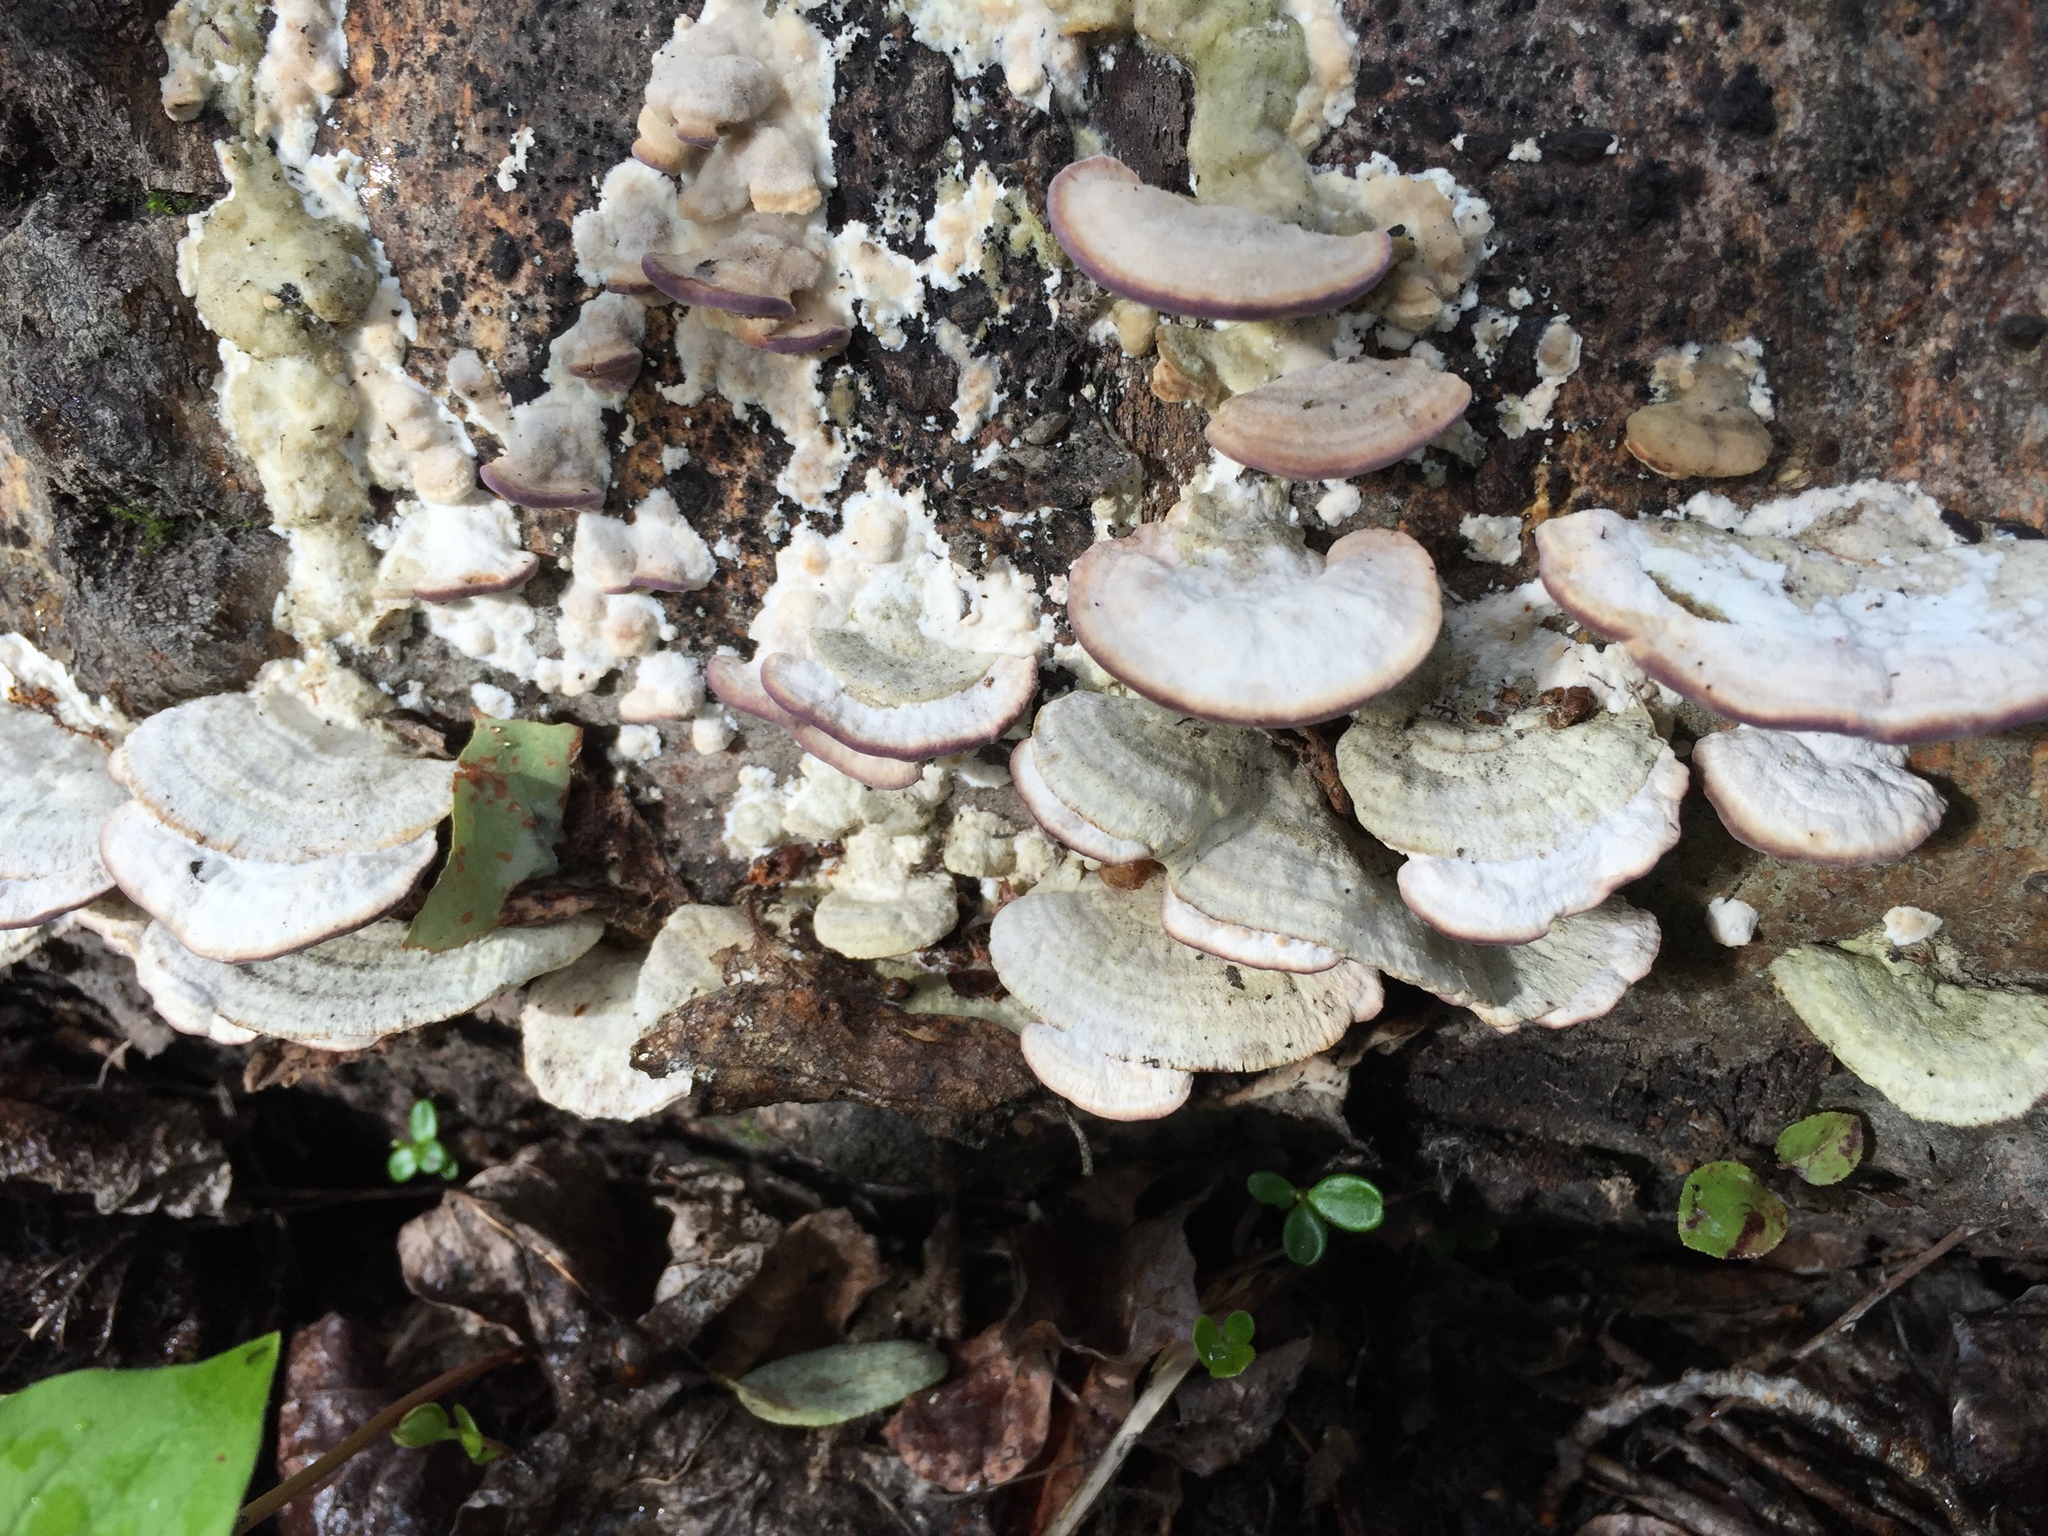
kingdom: Fungi
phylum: Basidiomycota
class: Agaricomycetes
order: Hymenochaetales
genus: Trichaptum
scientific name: Trichaptum biforme
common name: Violet-toothed polypore
